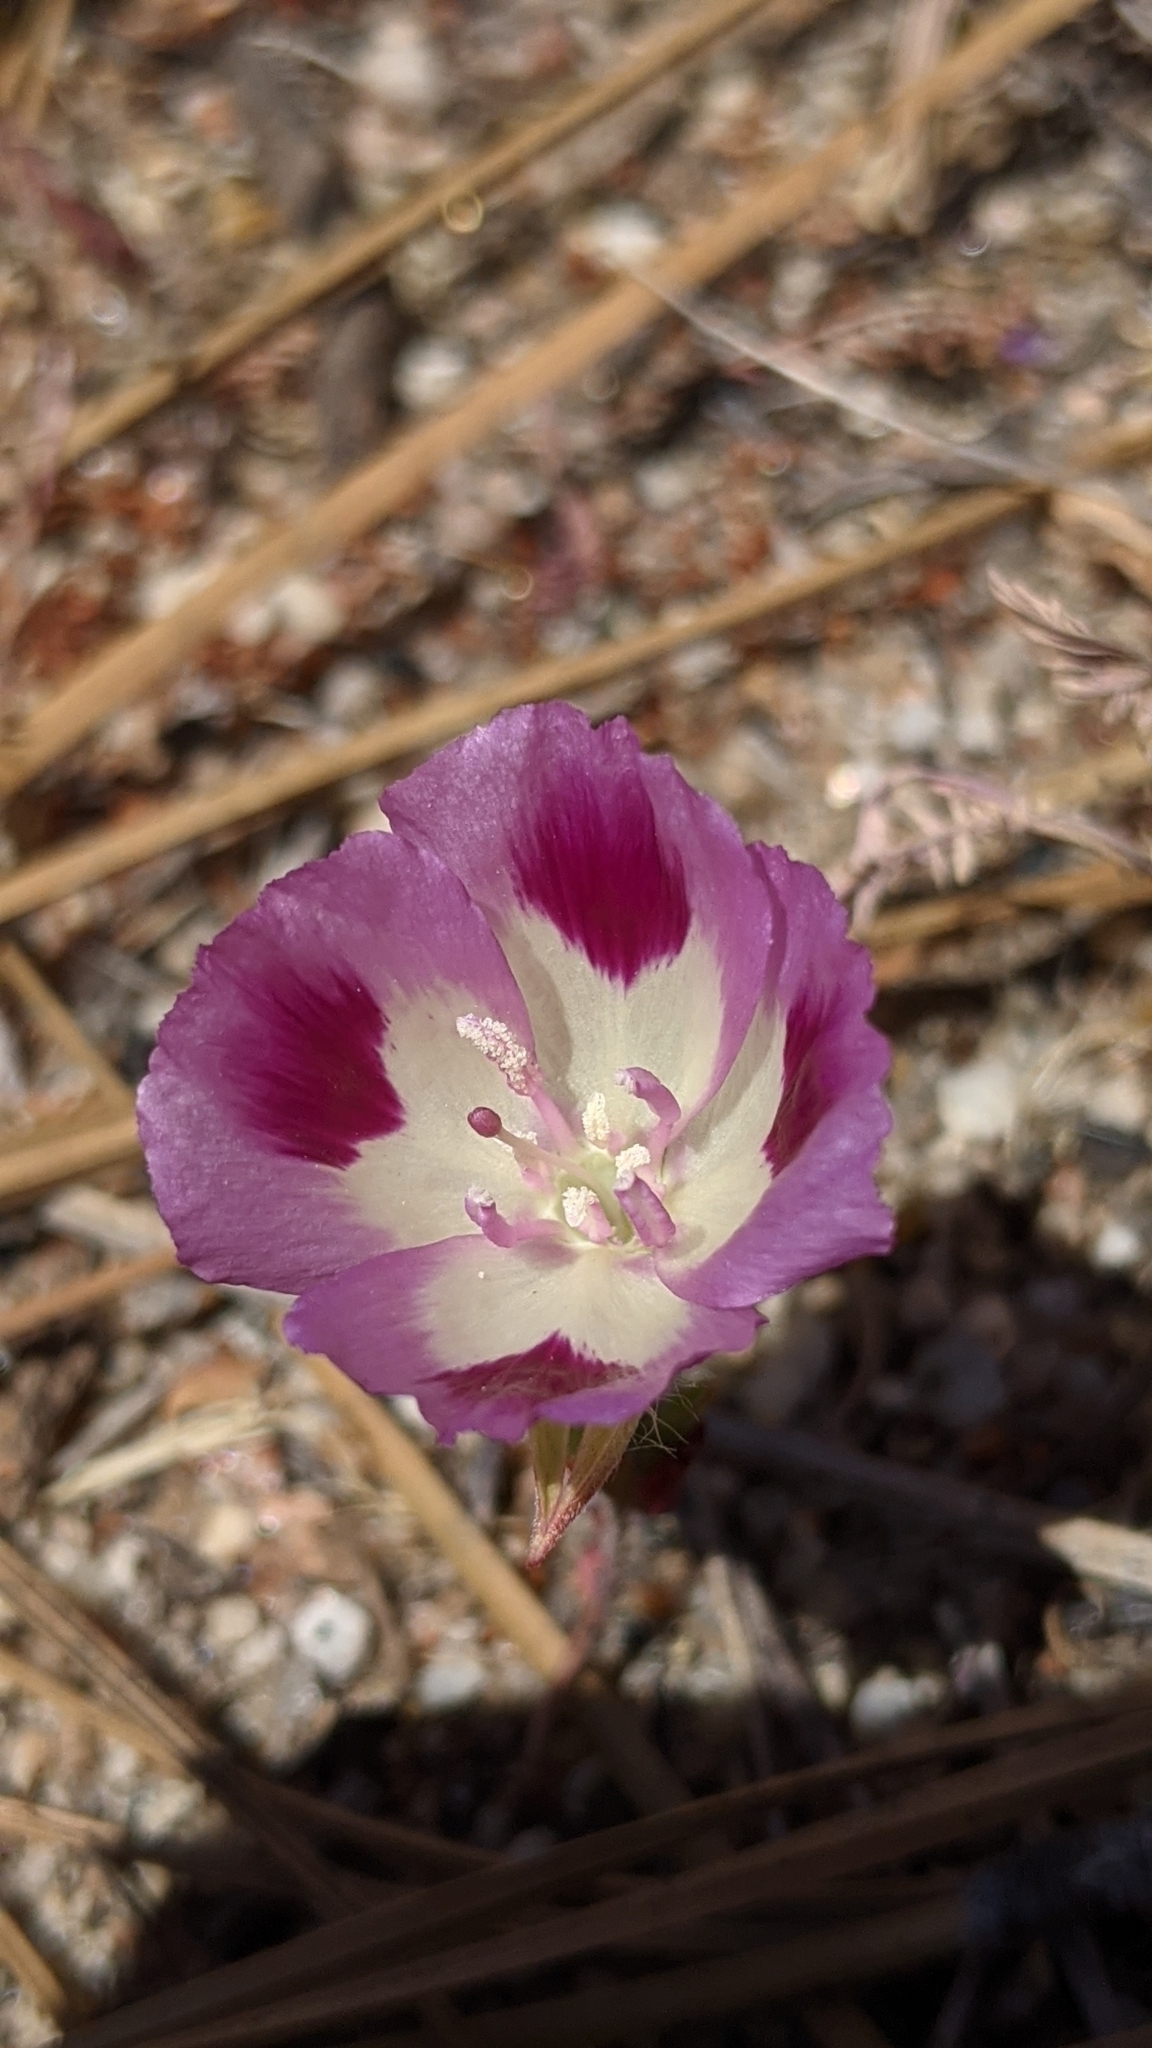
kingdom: Plantae
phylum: Tracheophyta
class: Magnoliopsida
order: Myrtales
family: Onagraceae
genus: Clarkia
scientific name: Clarkia williamsonii
